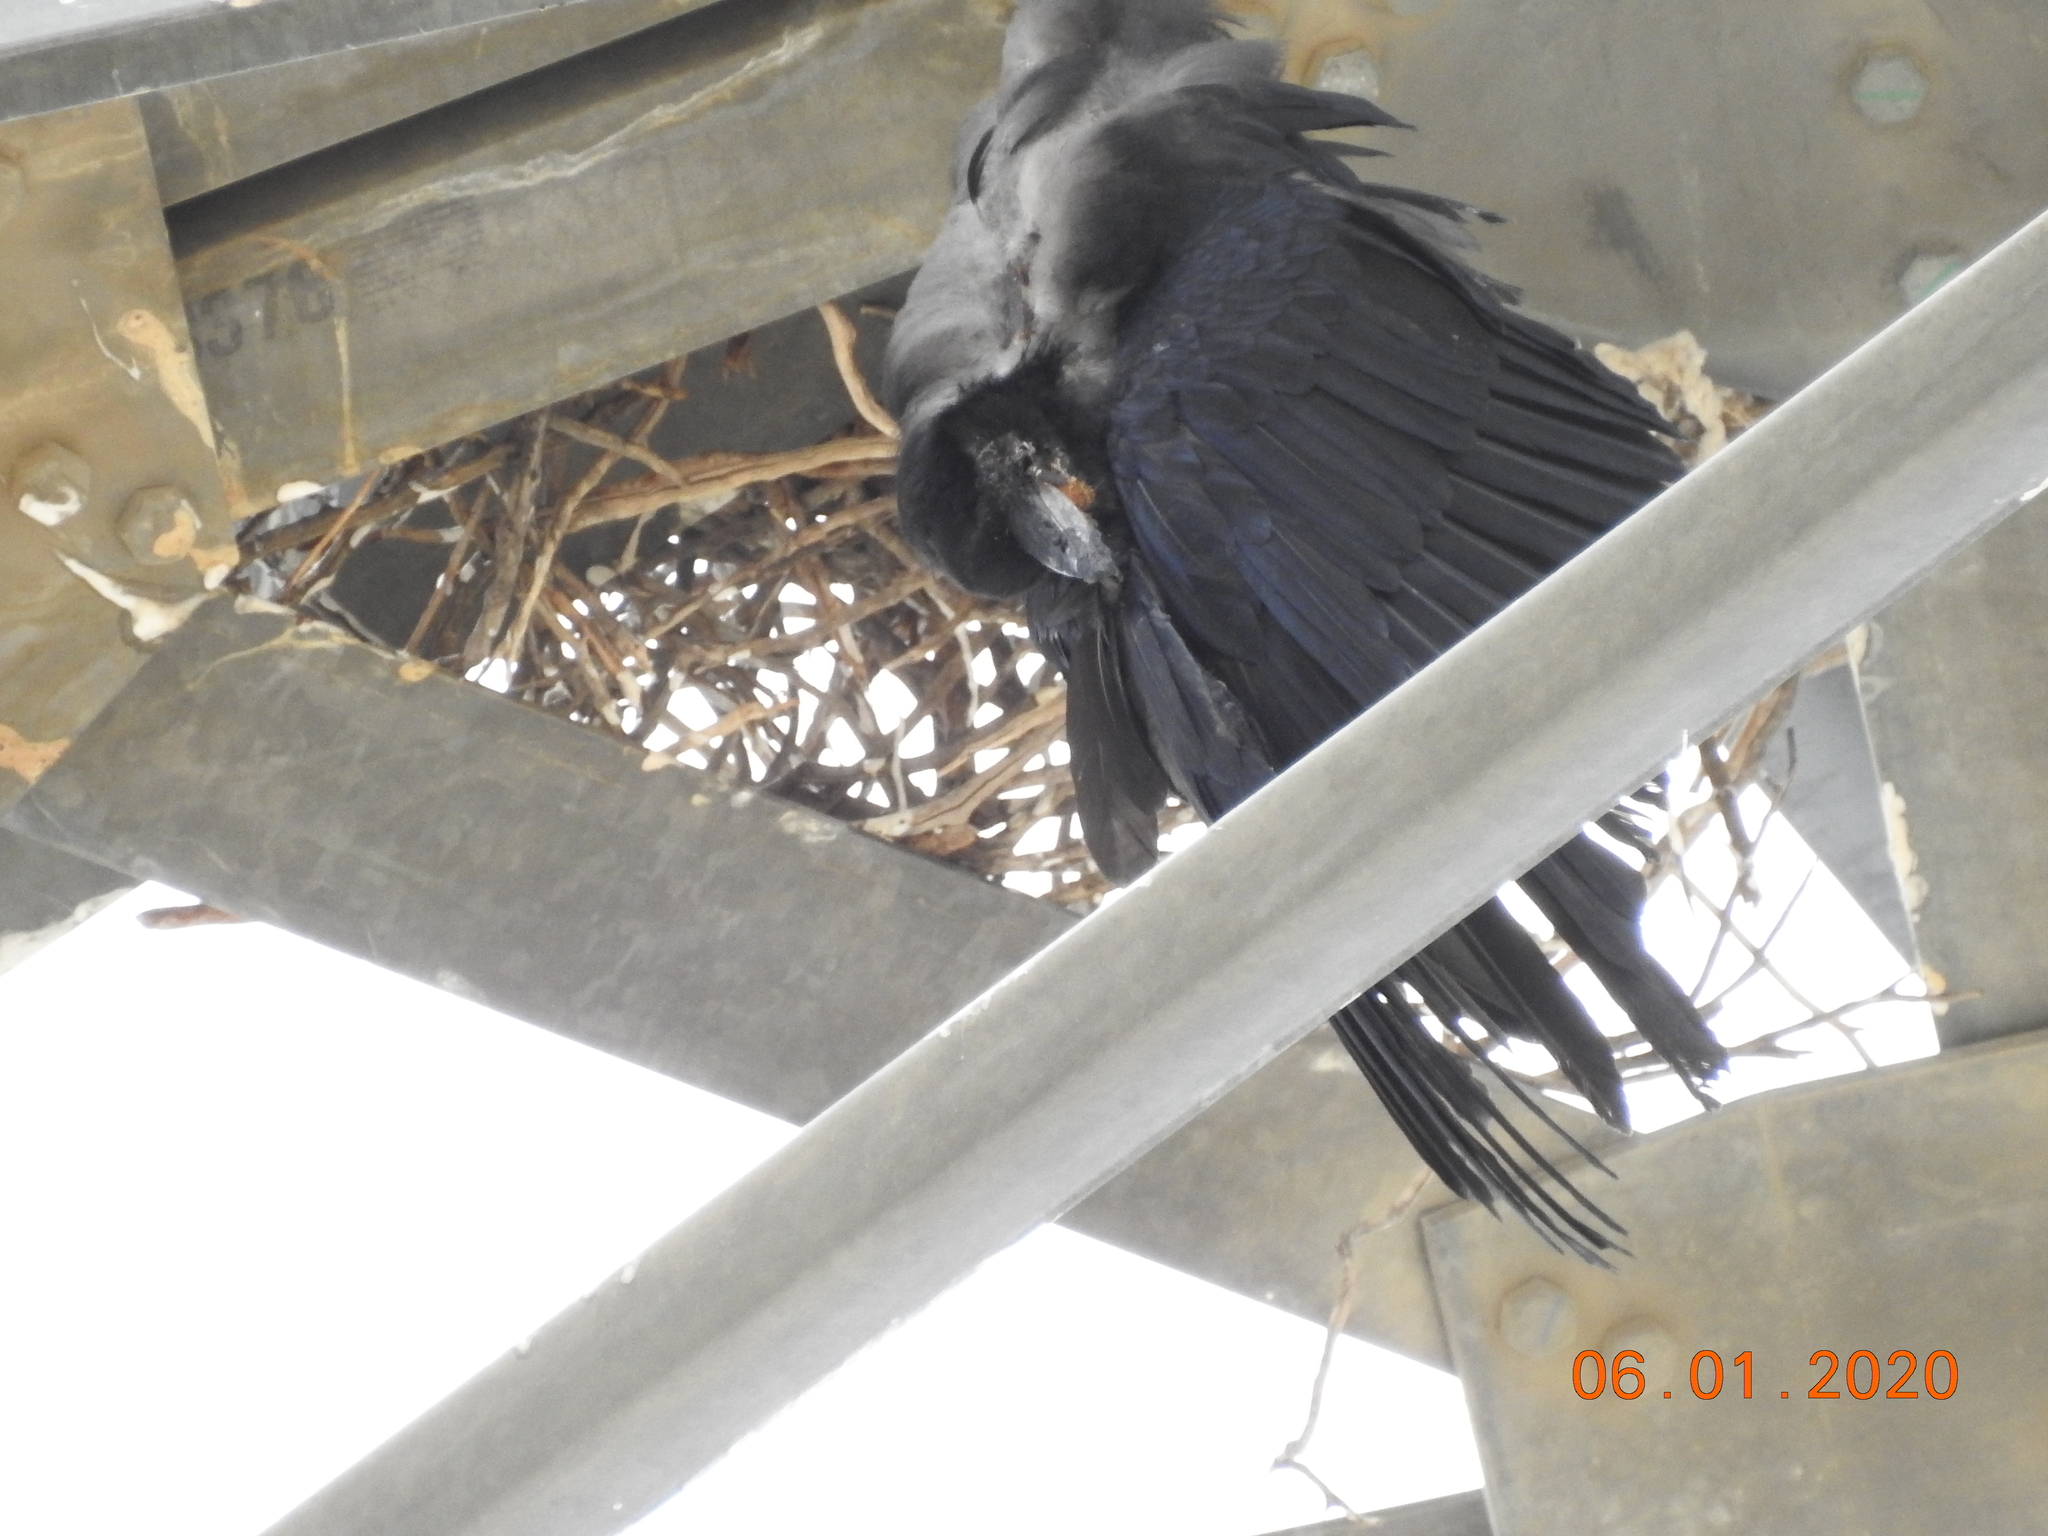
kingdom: Animalia
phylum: Chordata
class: Aves
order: Passeriformes
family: Corvidae
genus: Corvus
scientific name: Corvus corax
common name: Common raven
